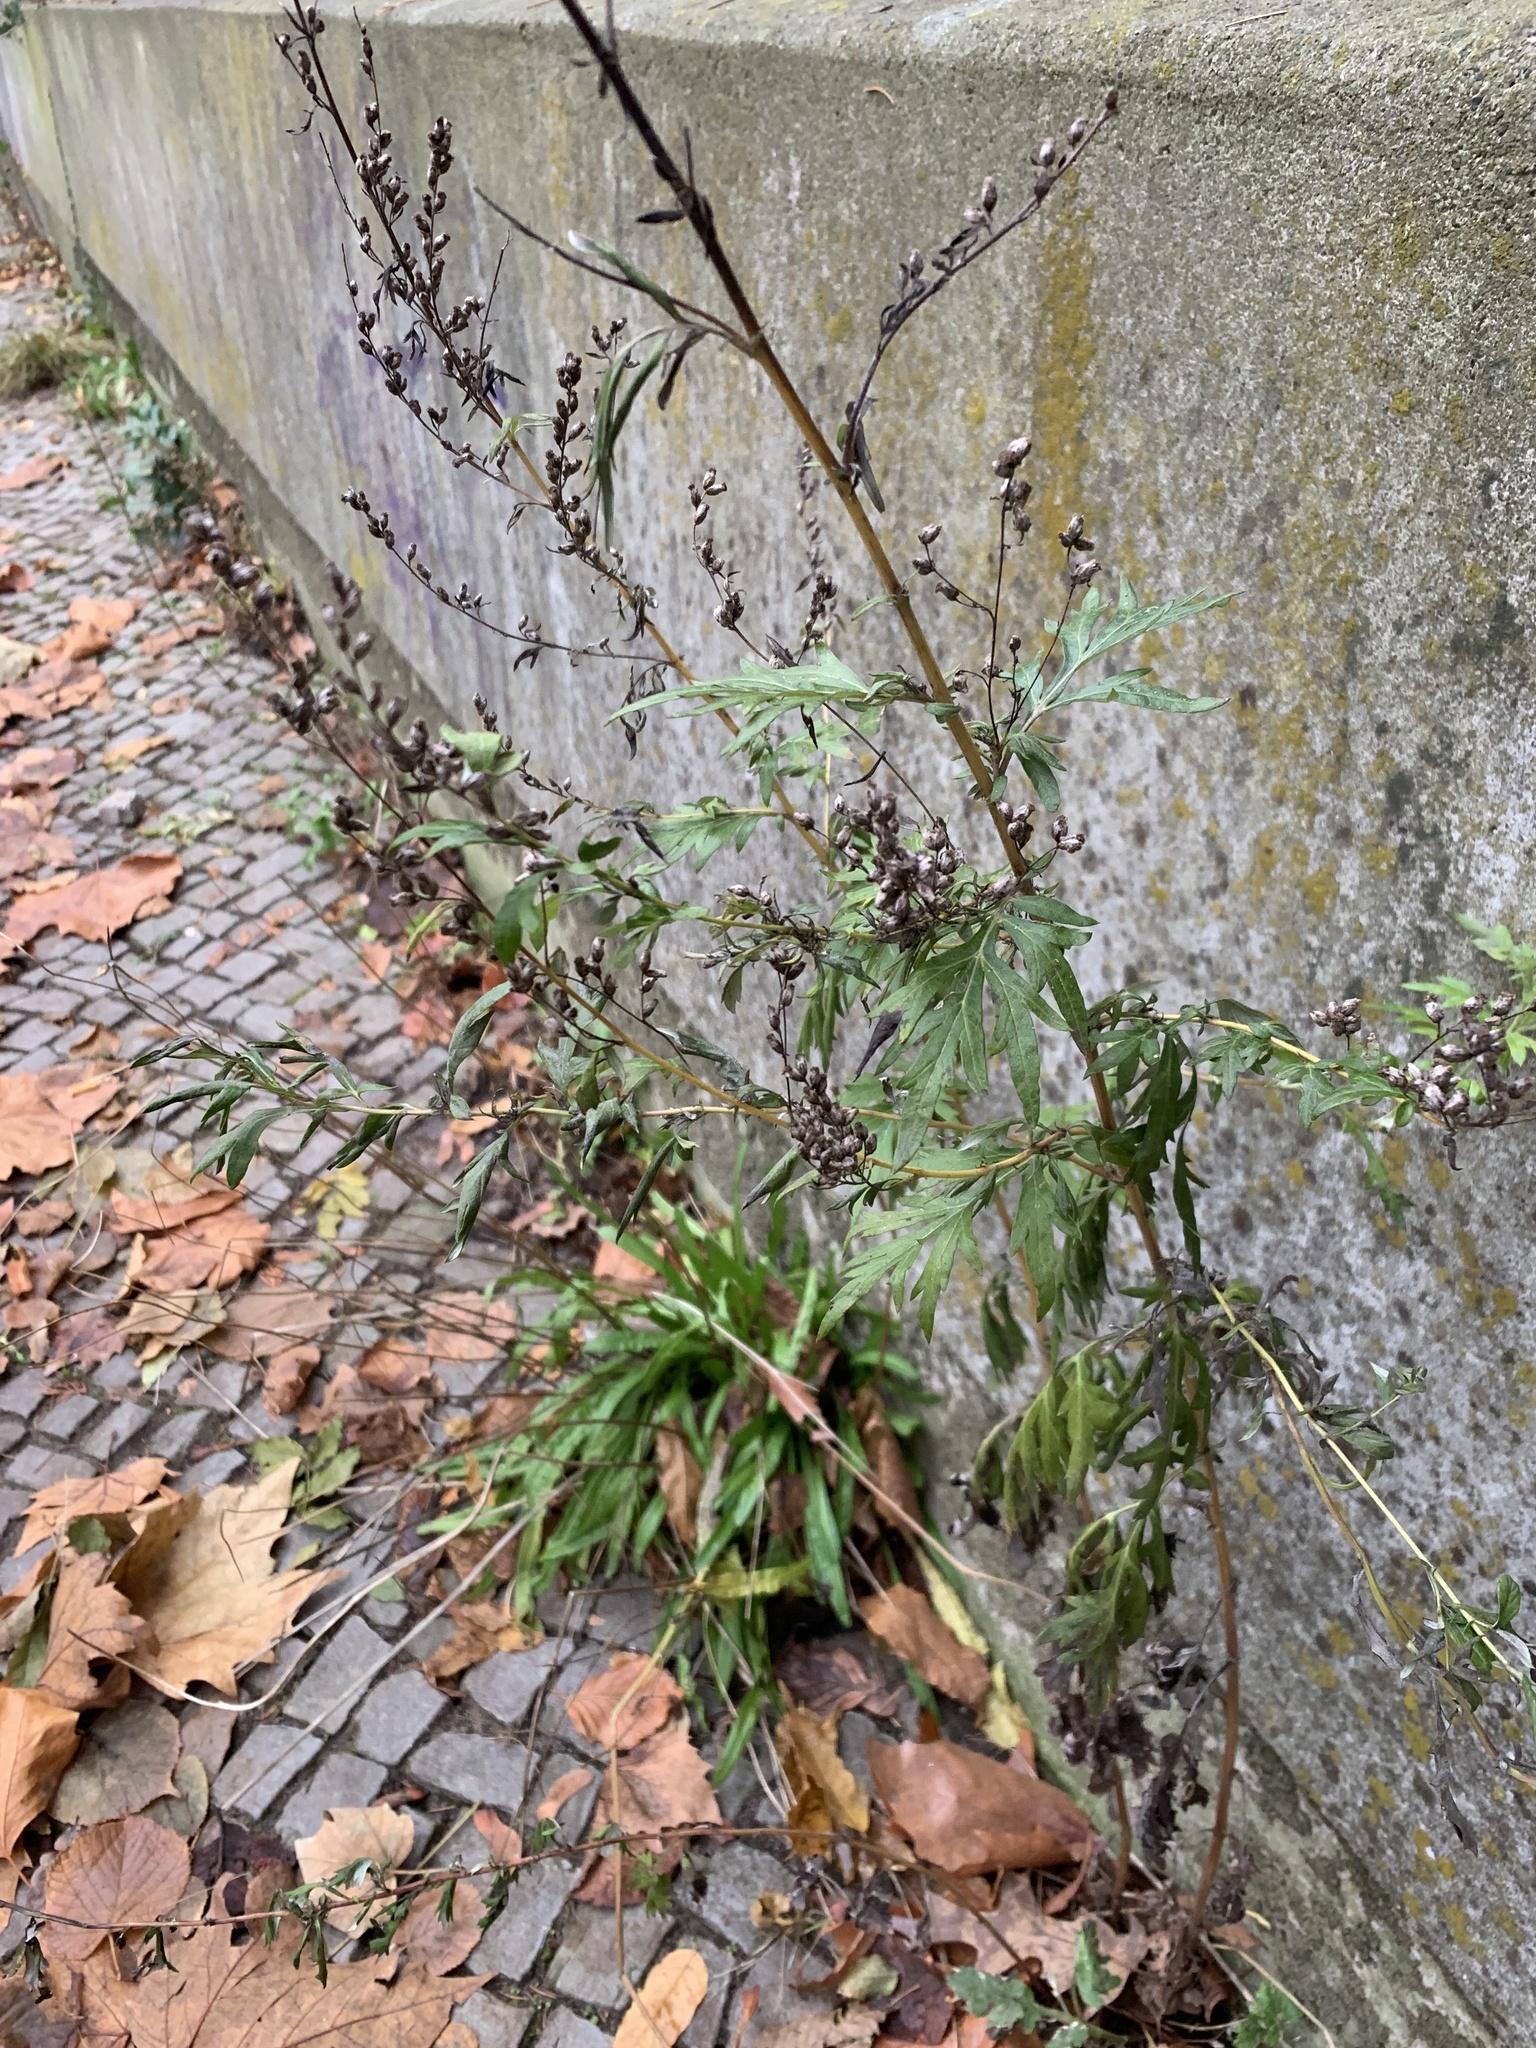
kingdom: Plantae
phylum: Tracheophyta
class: Magnoliopsida
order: Asterales
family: Asteraceae
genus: Artemisia
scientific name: Artemisia vulgaris
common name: Mugwort
